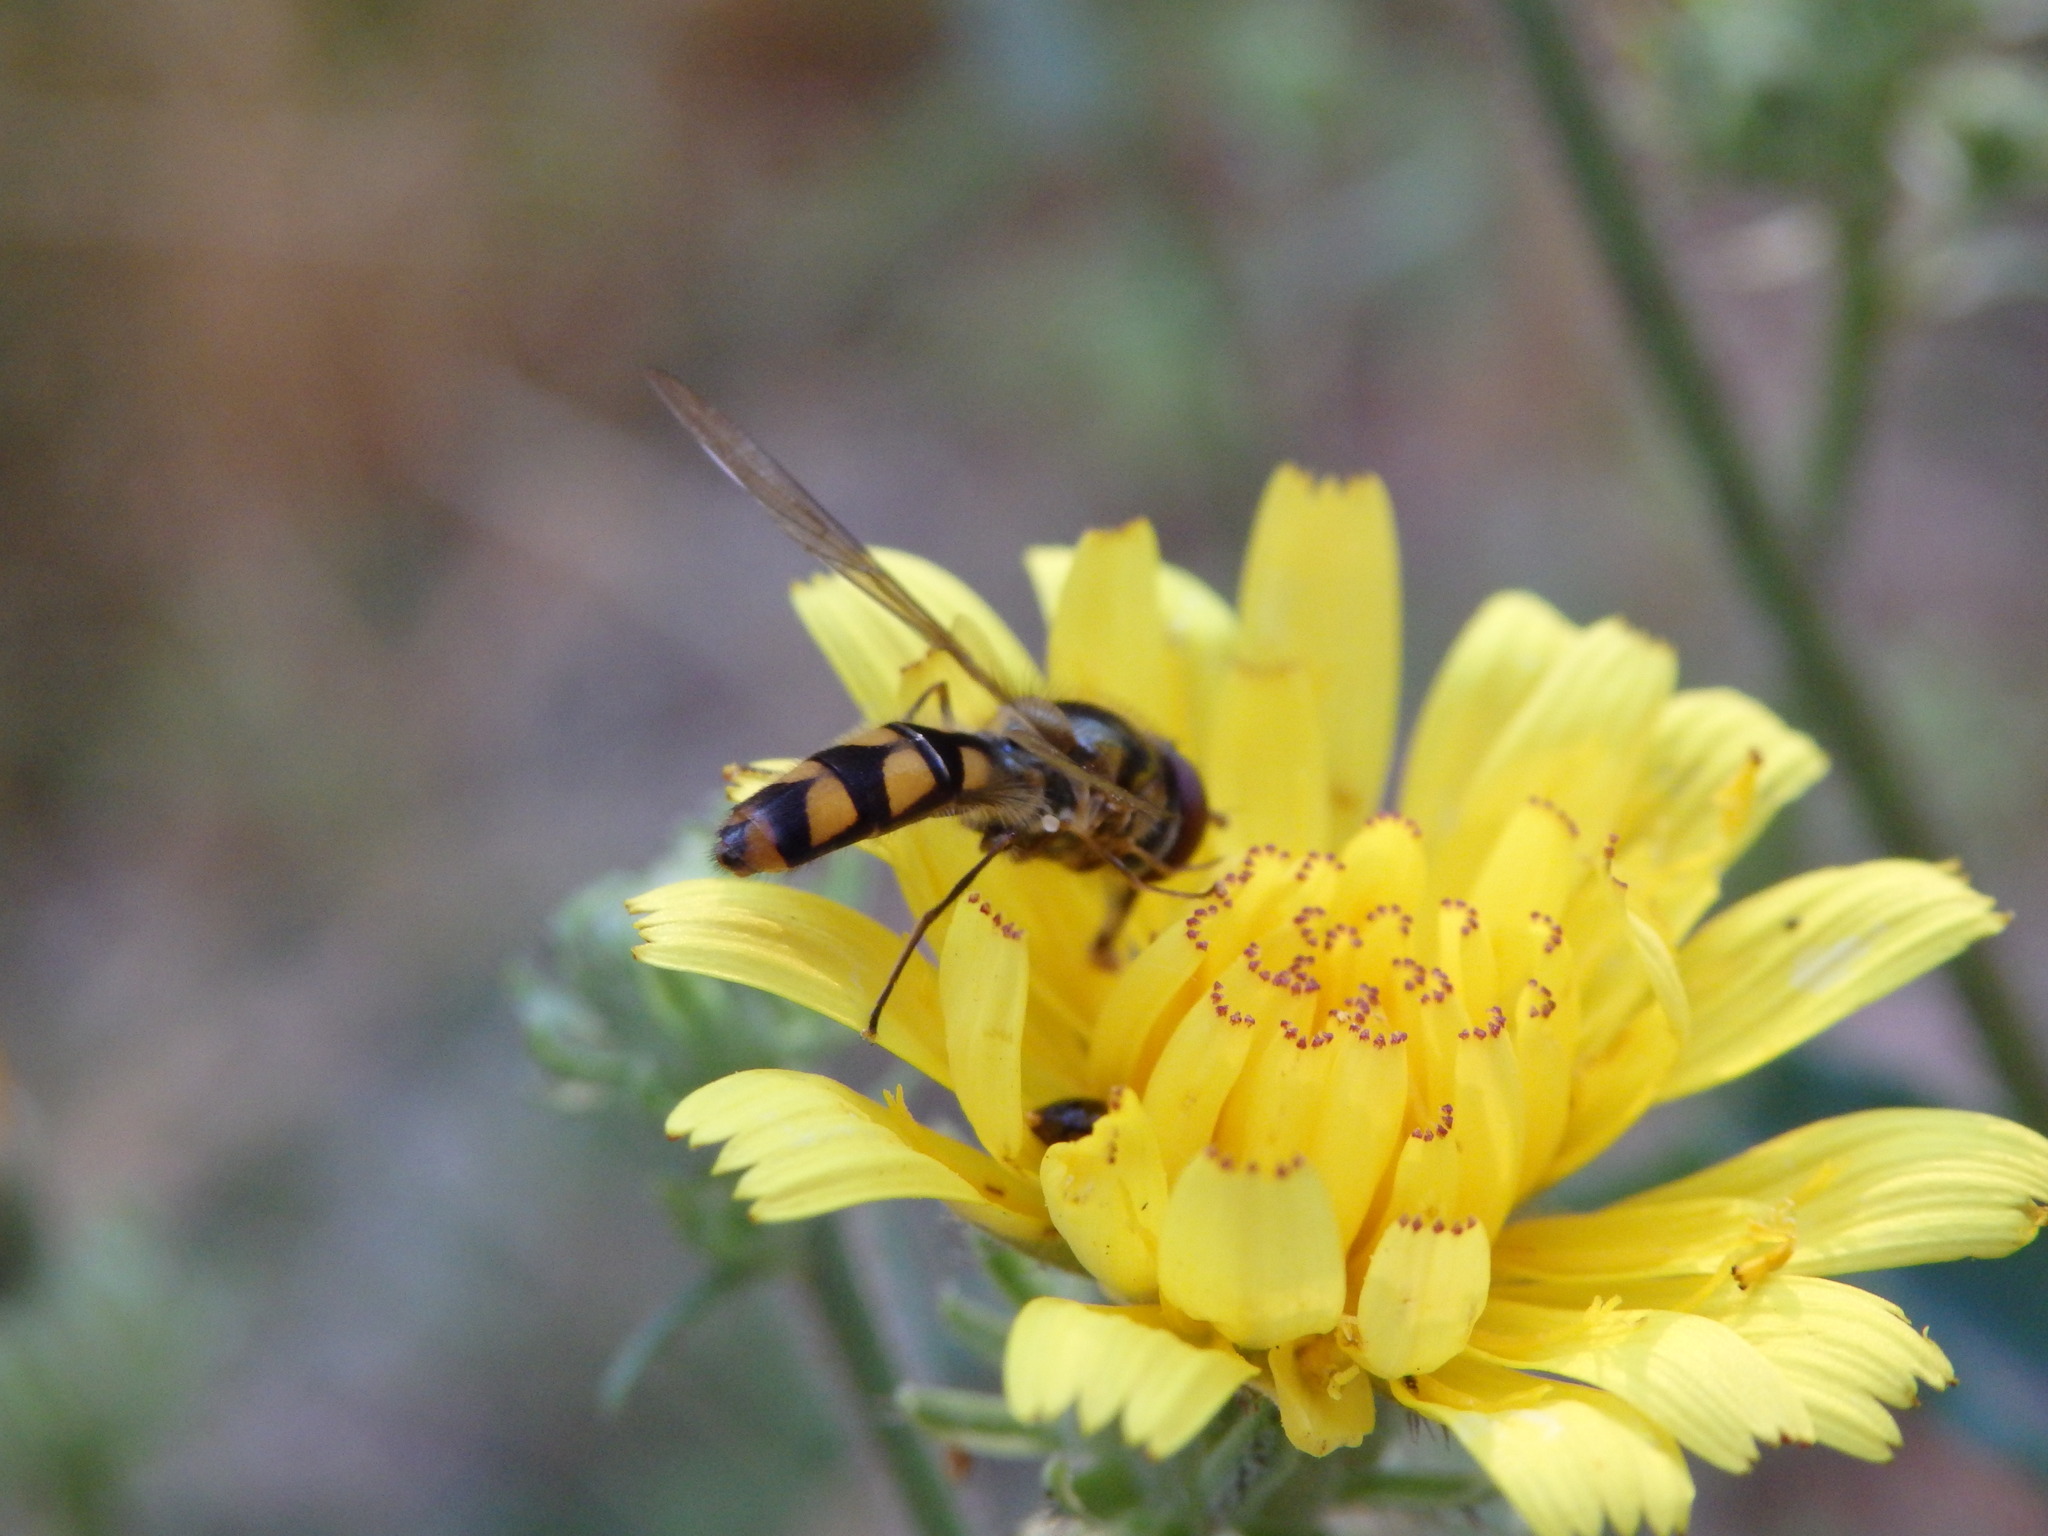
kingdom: Animalia
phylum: Arthropoda
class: Insecta
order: Diptera
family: Syrphidae
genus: Meliscaeva
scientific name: Meliscaeva auricollis
